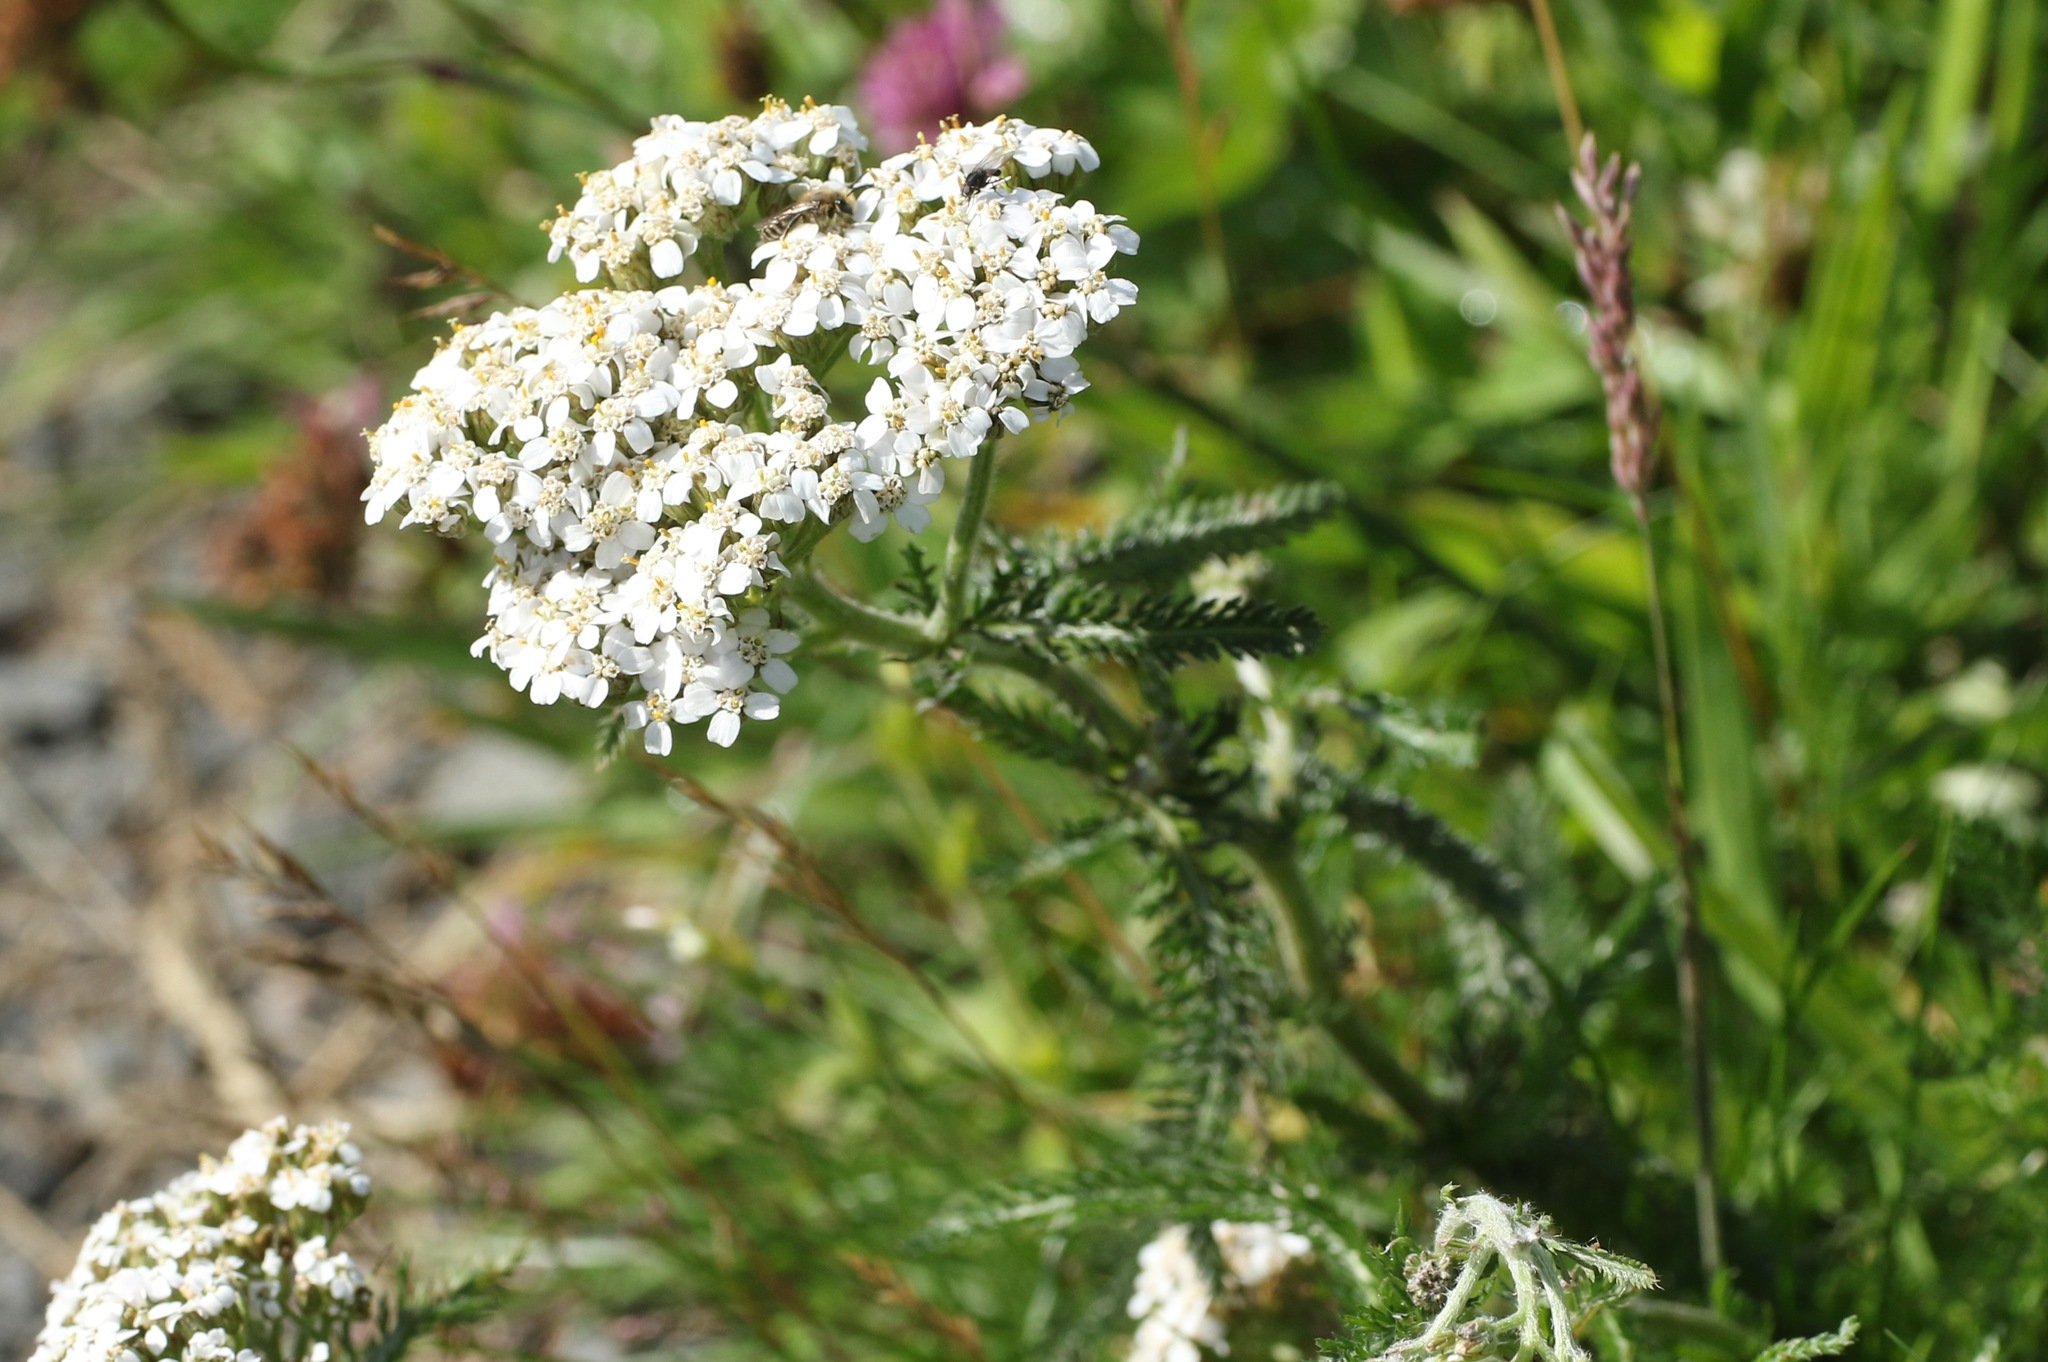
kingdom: Plantae
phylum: Tracheophyta
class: Magnoliopsida
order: Asterales
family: Asteraceae
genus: Achillea
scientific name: Achillea millefolium
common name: Yarrow
